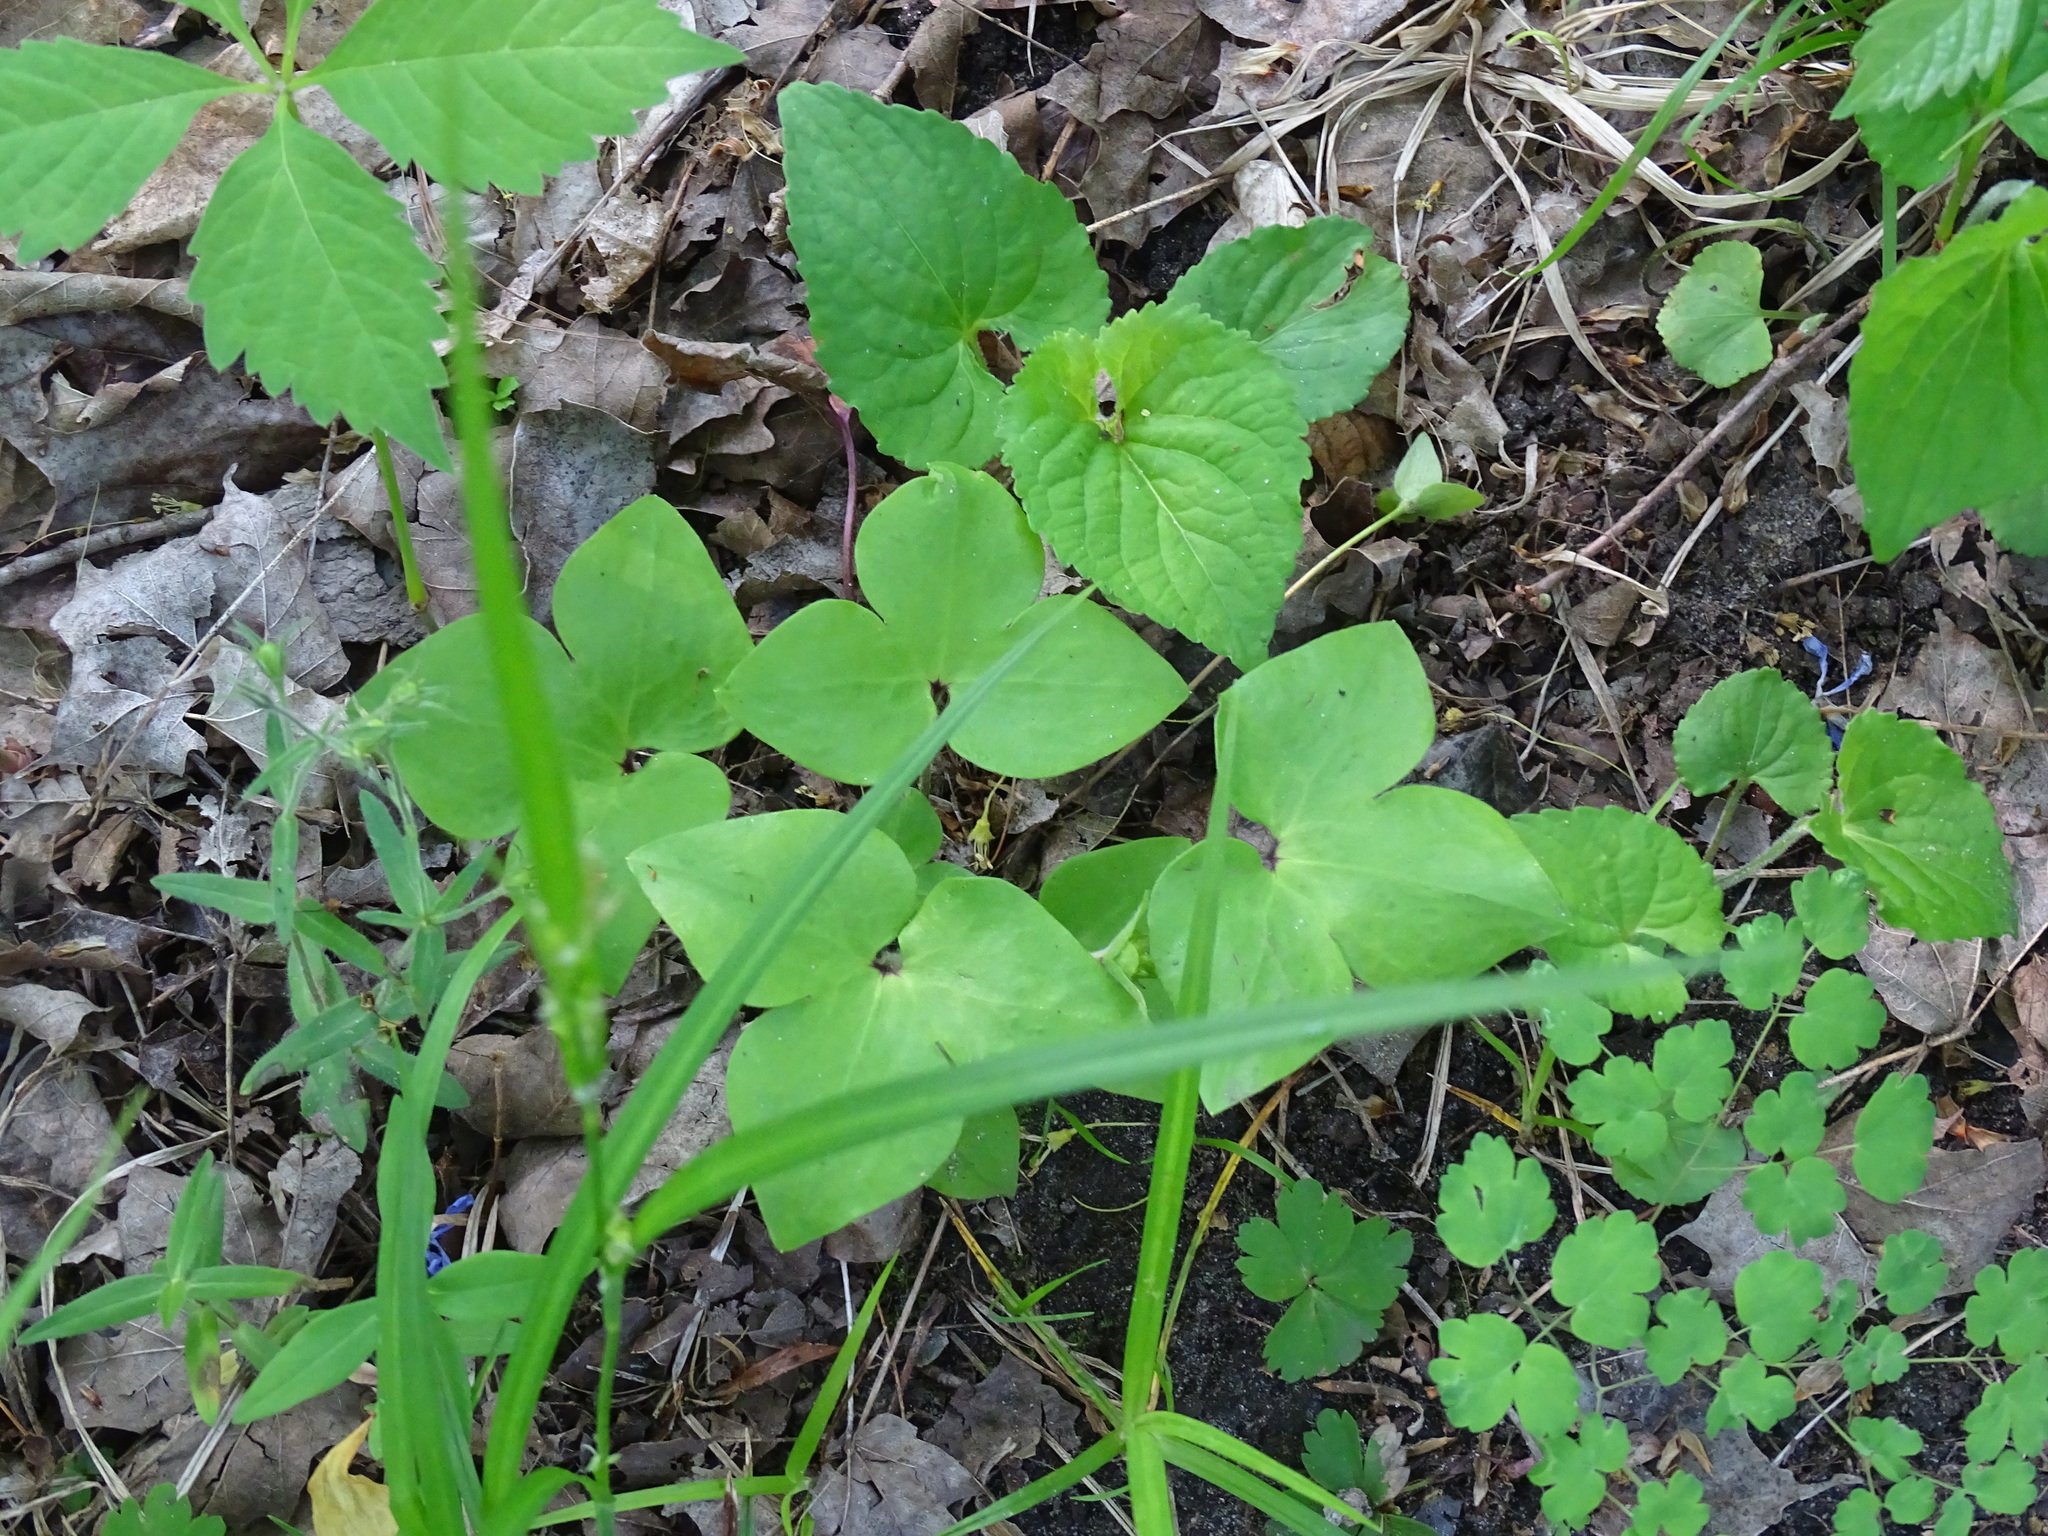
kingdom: Plantae
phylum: Tracheophyta
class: Magnoliopsida
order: Ranunculales
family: Ranunculaceae
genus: Hepatica
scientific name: Hepatica acutiloba
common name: Sharp-lobed hepatica
